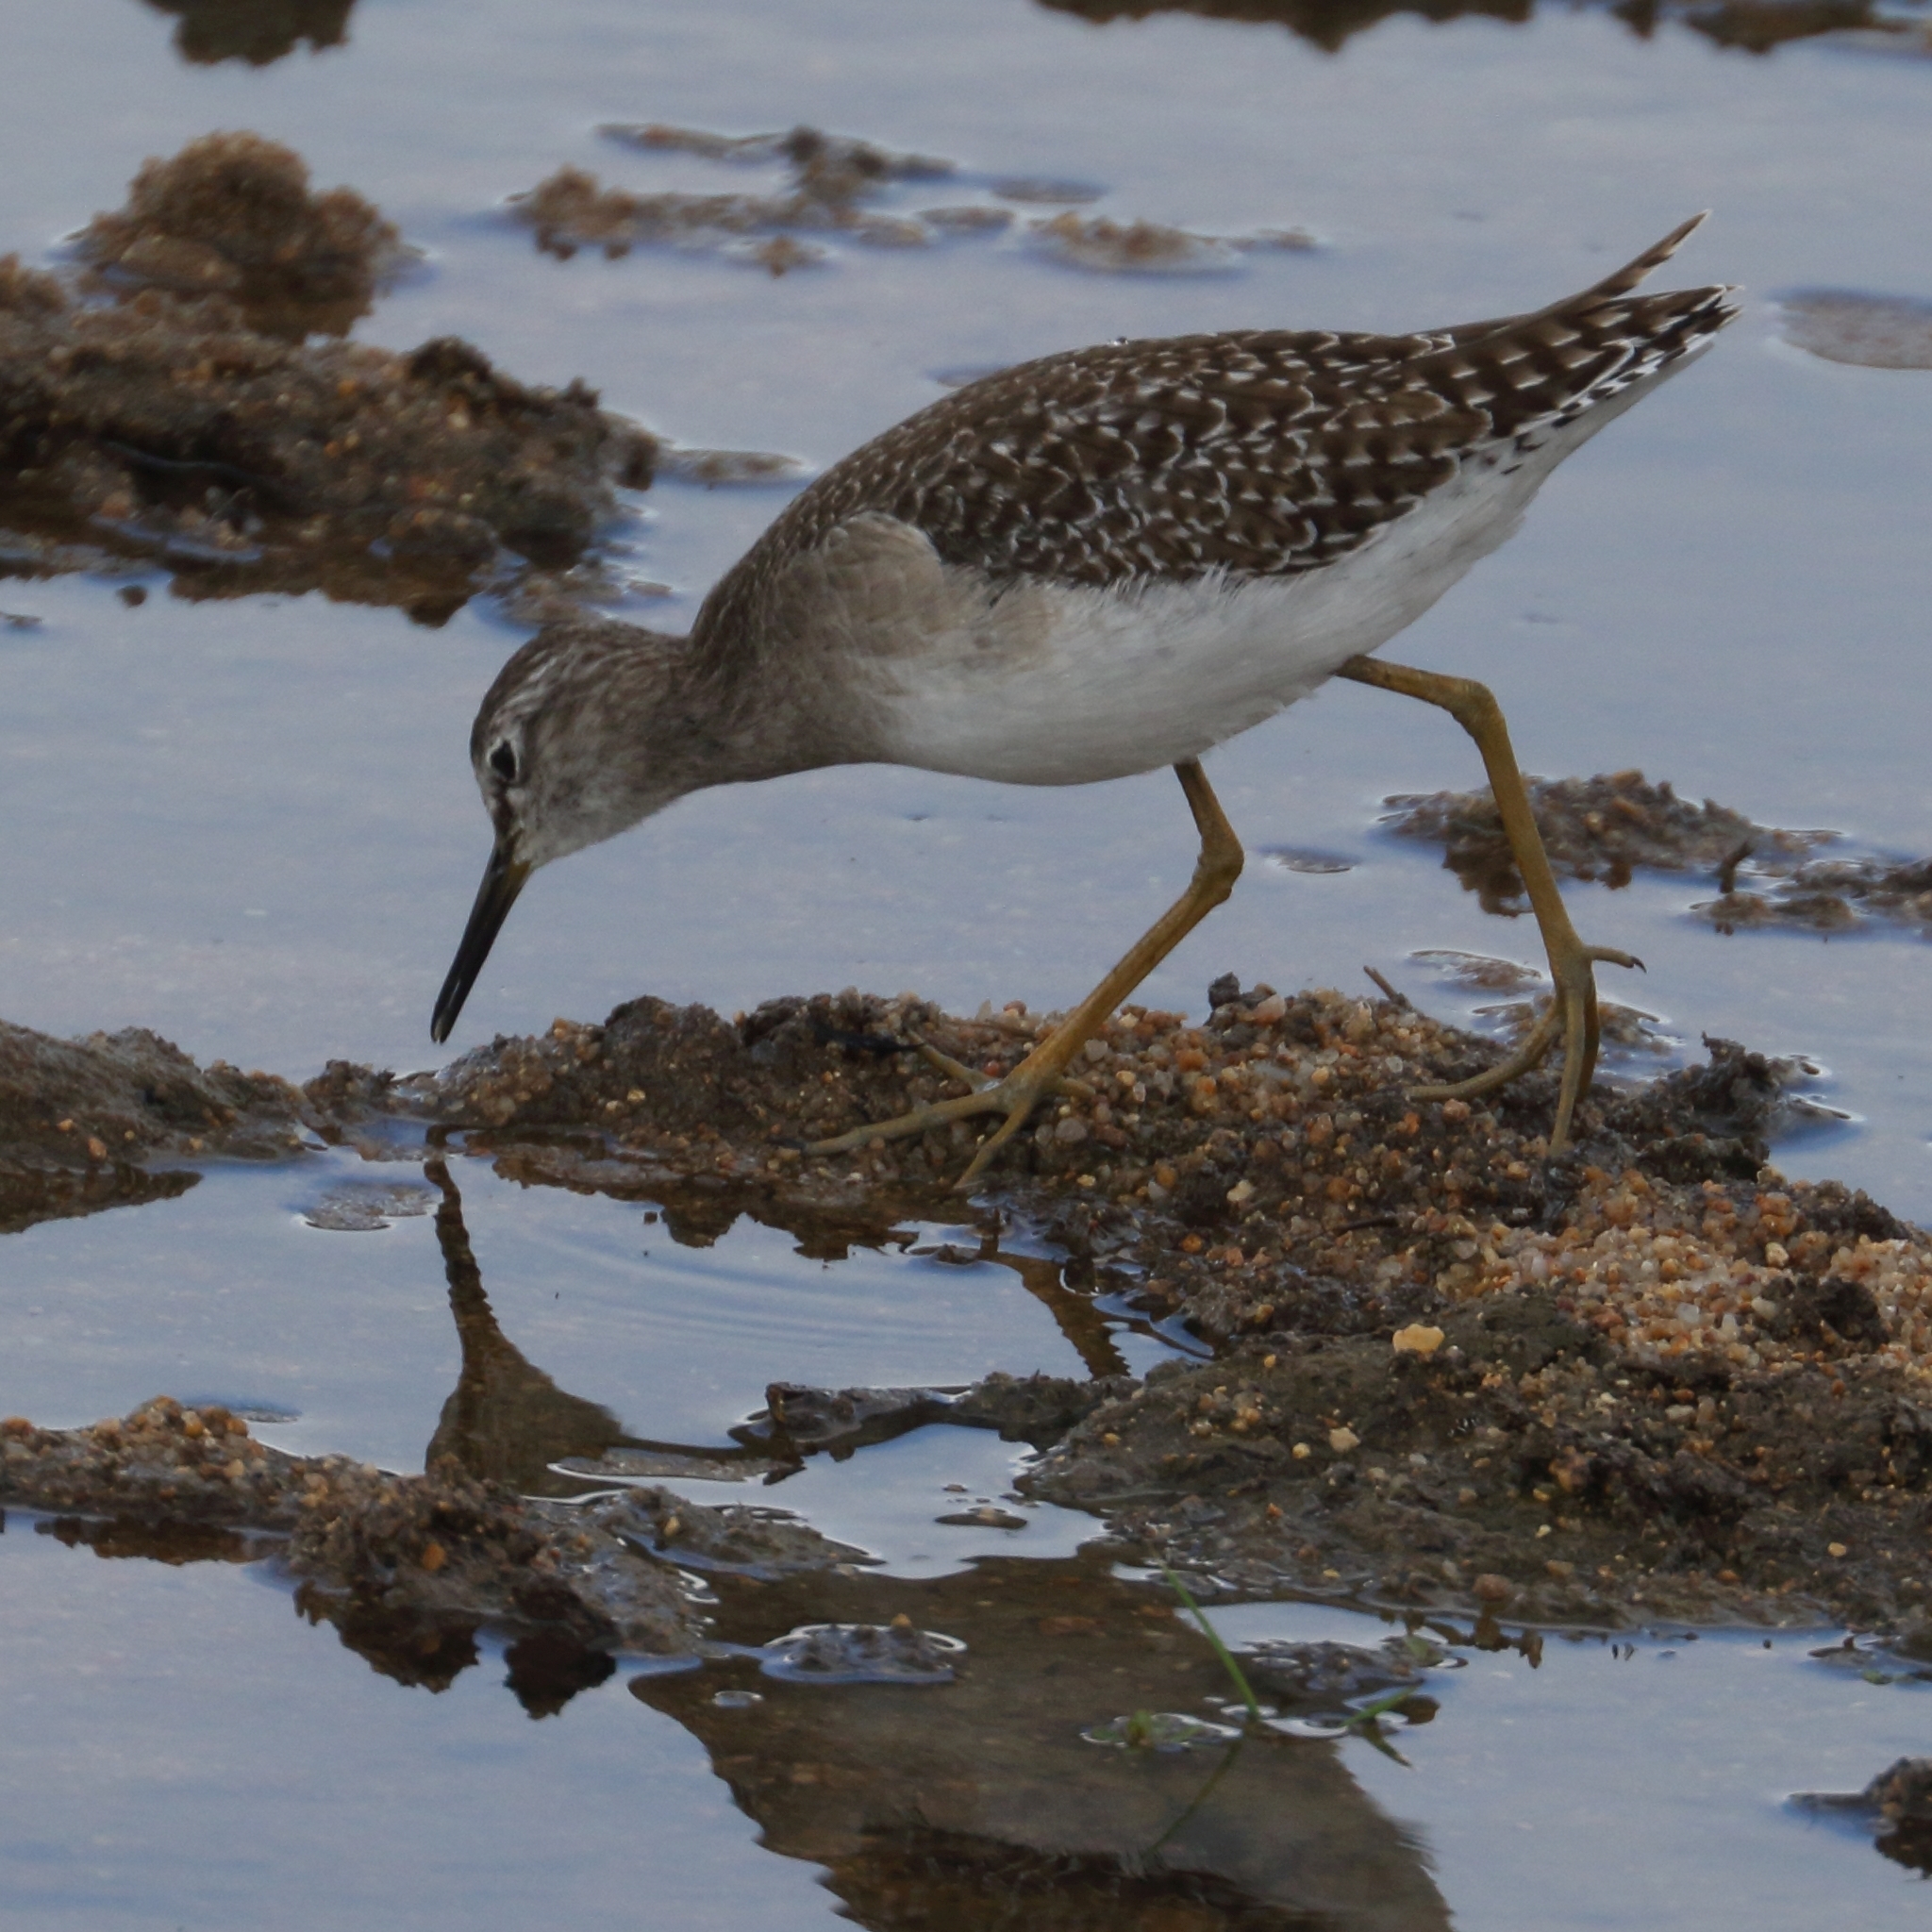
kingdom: Animalia
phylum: Chordata
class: Aves
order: Charadriiformes
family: Scolopacidae
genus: Tringa
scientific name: Tringa glareola
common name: Wood sandpiper
